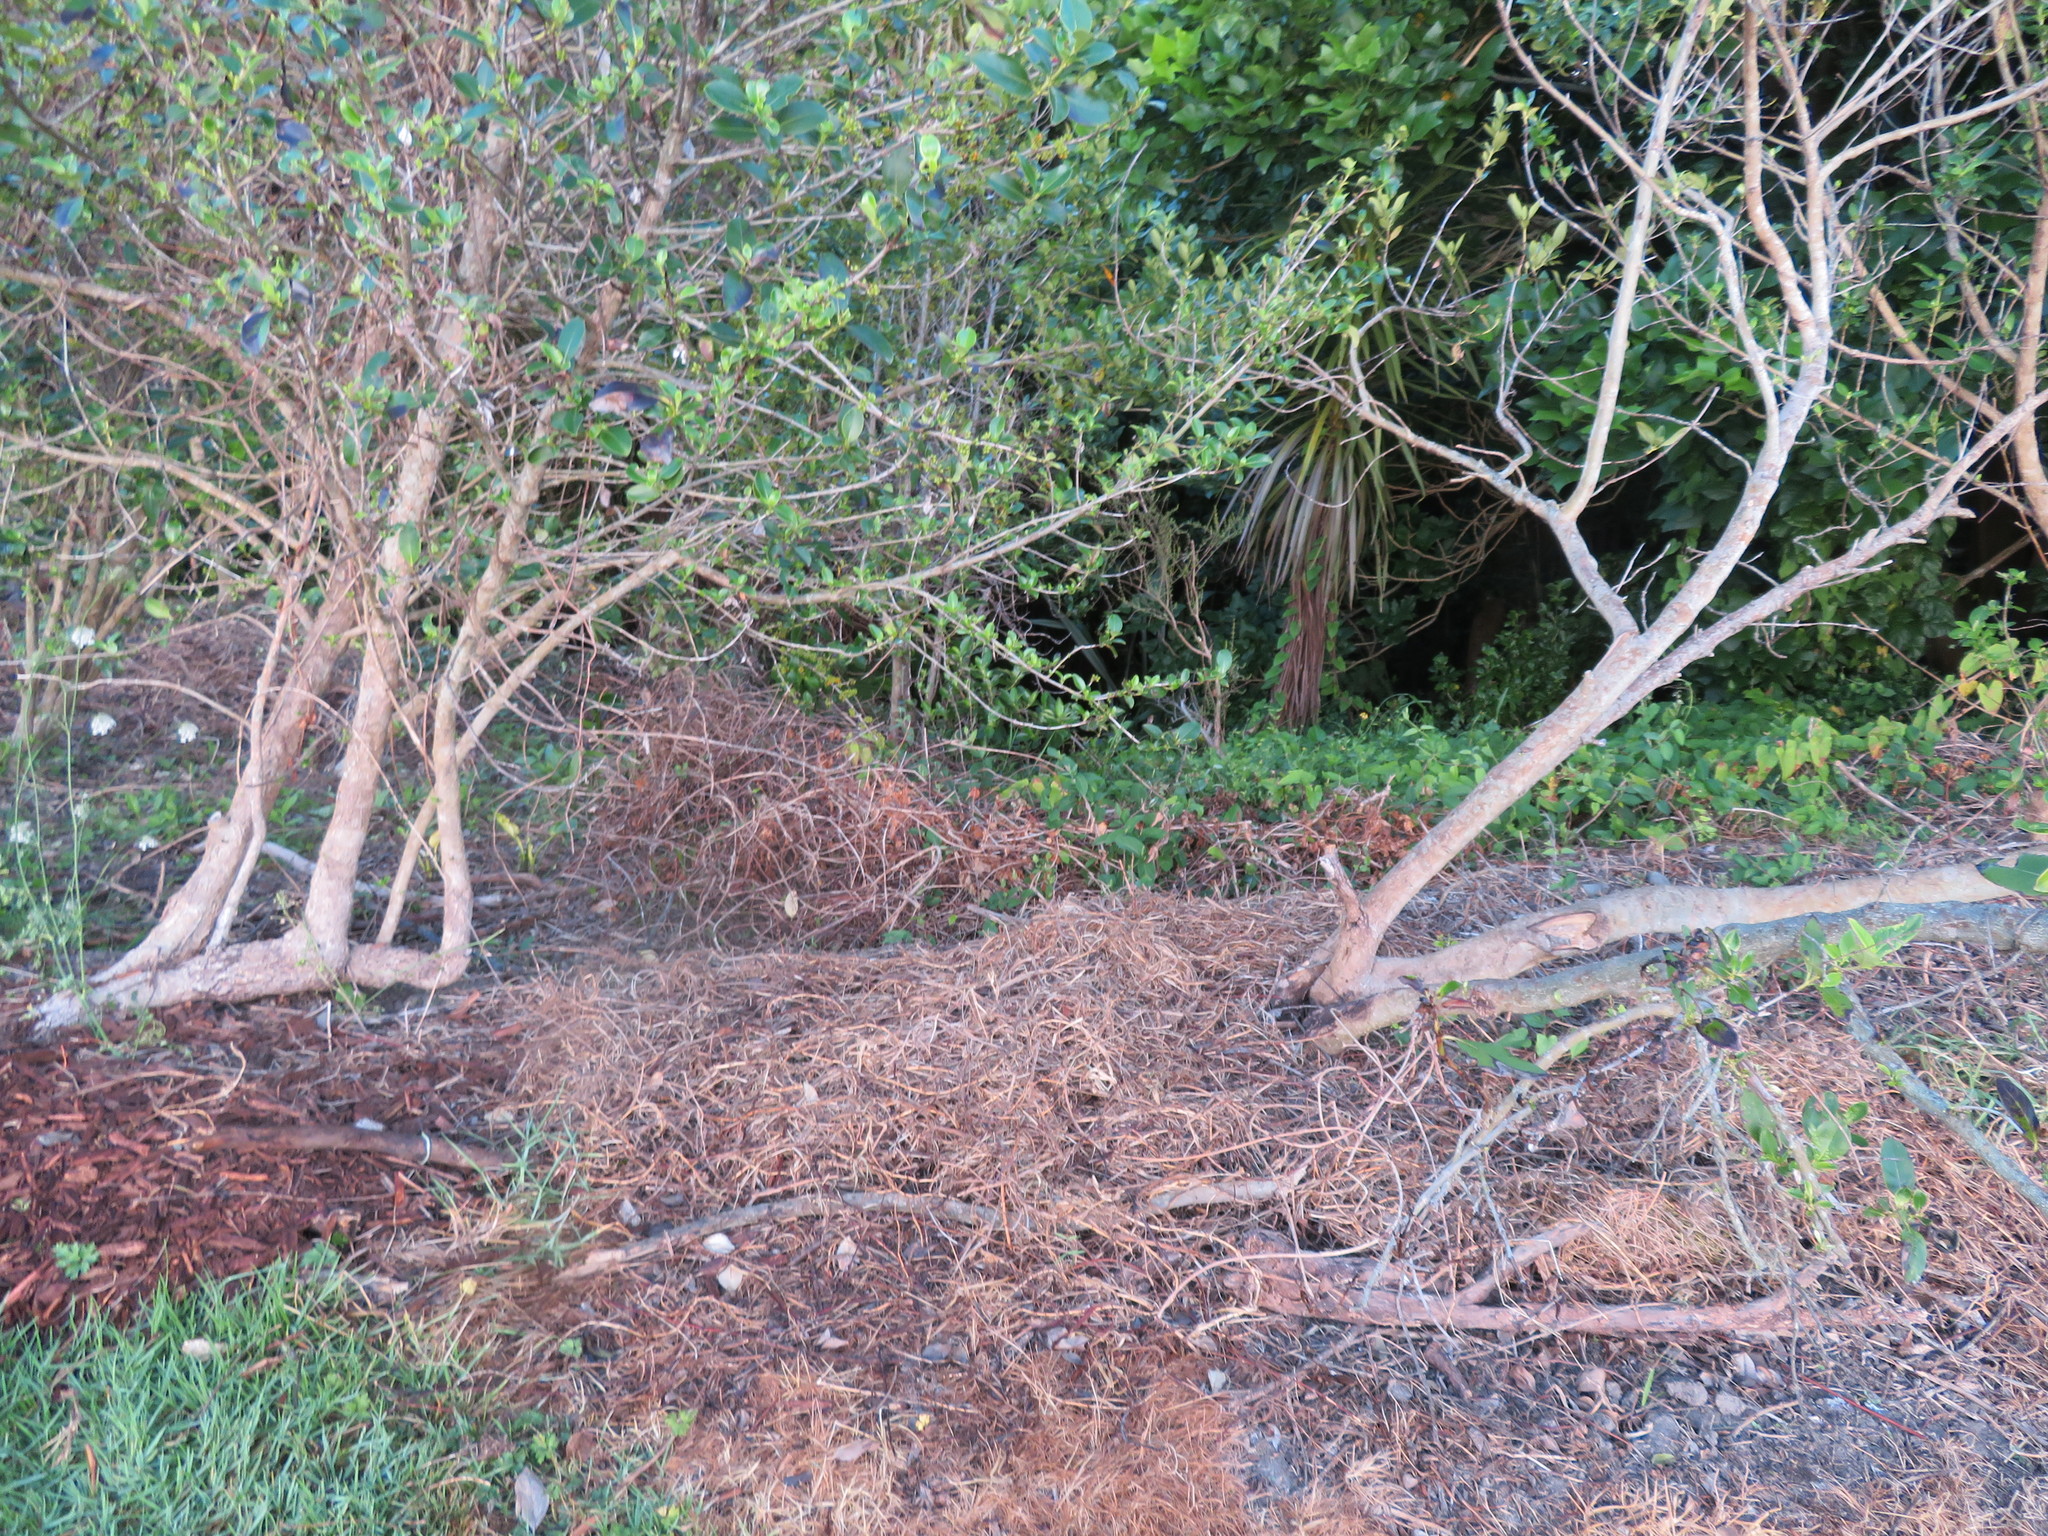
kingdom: Plantae
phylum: Tracheophyta
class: Magnoliopsida
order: Gentianales
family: Rubiaceae
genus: Coprosma
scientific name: Coprosma robusta
